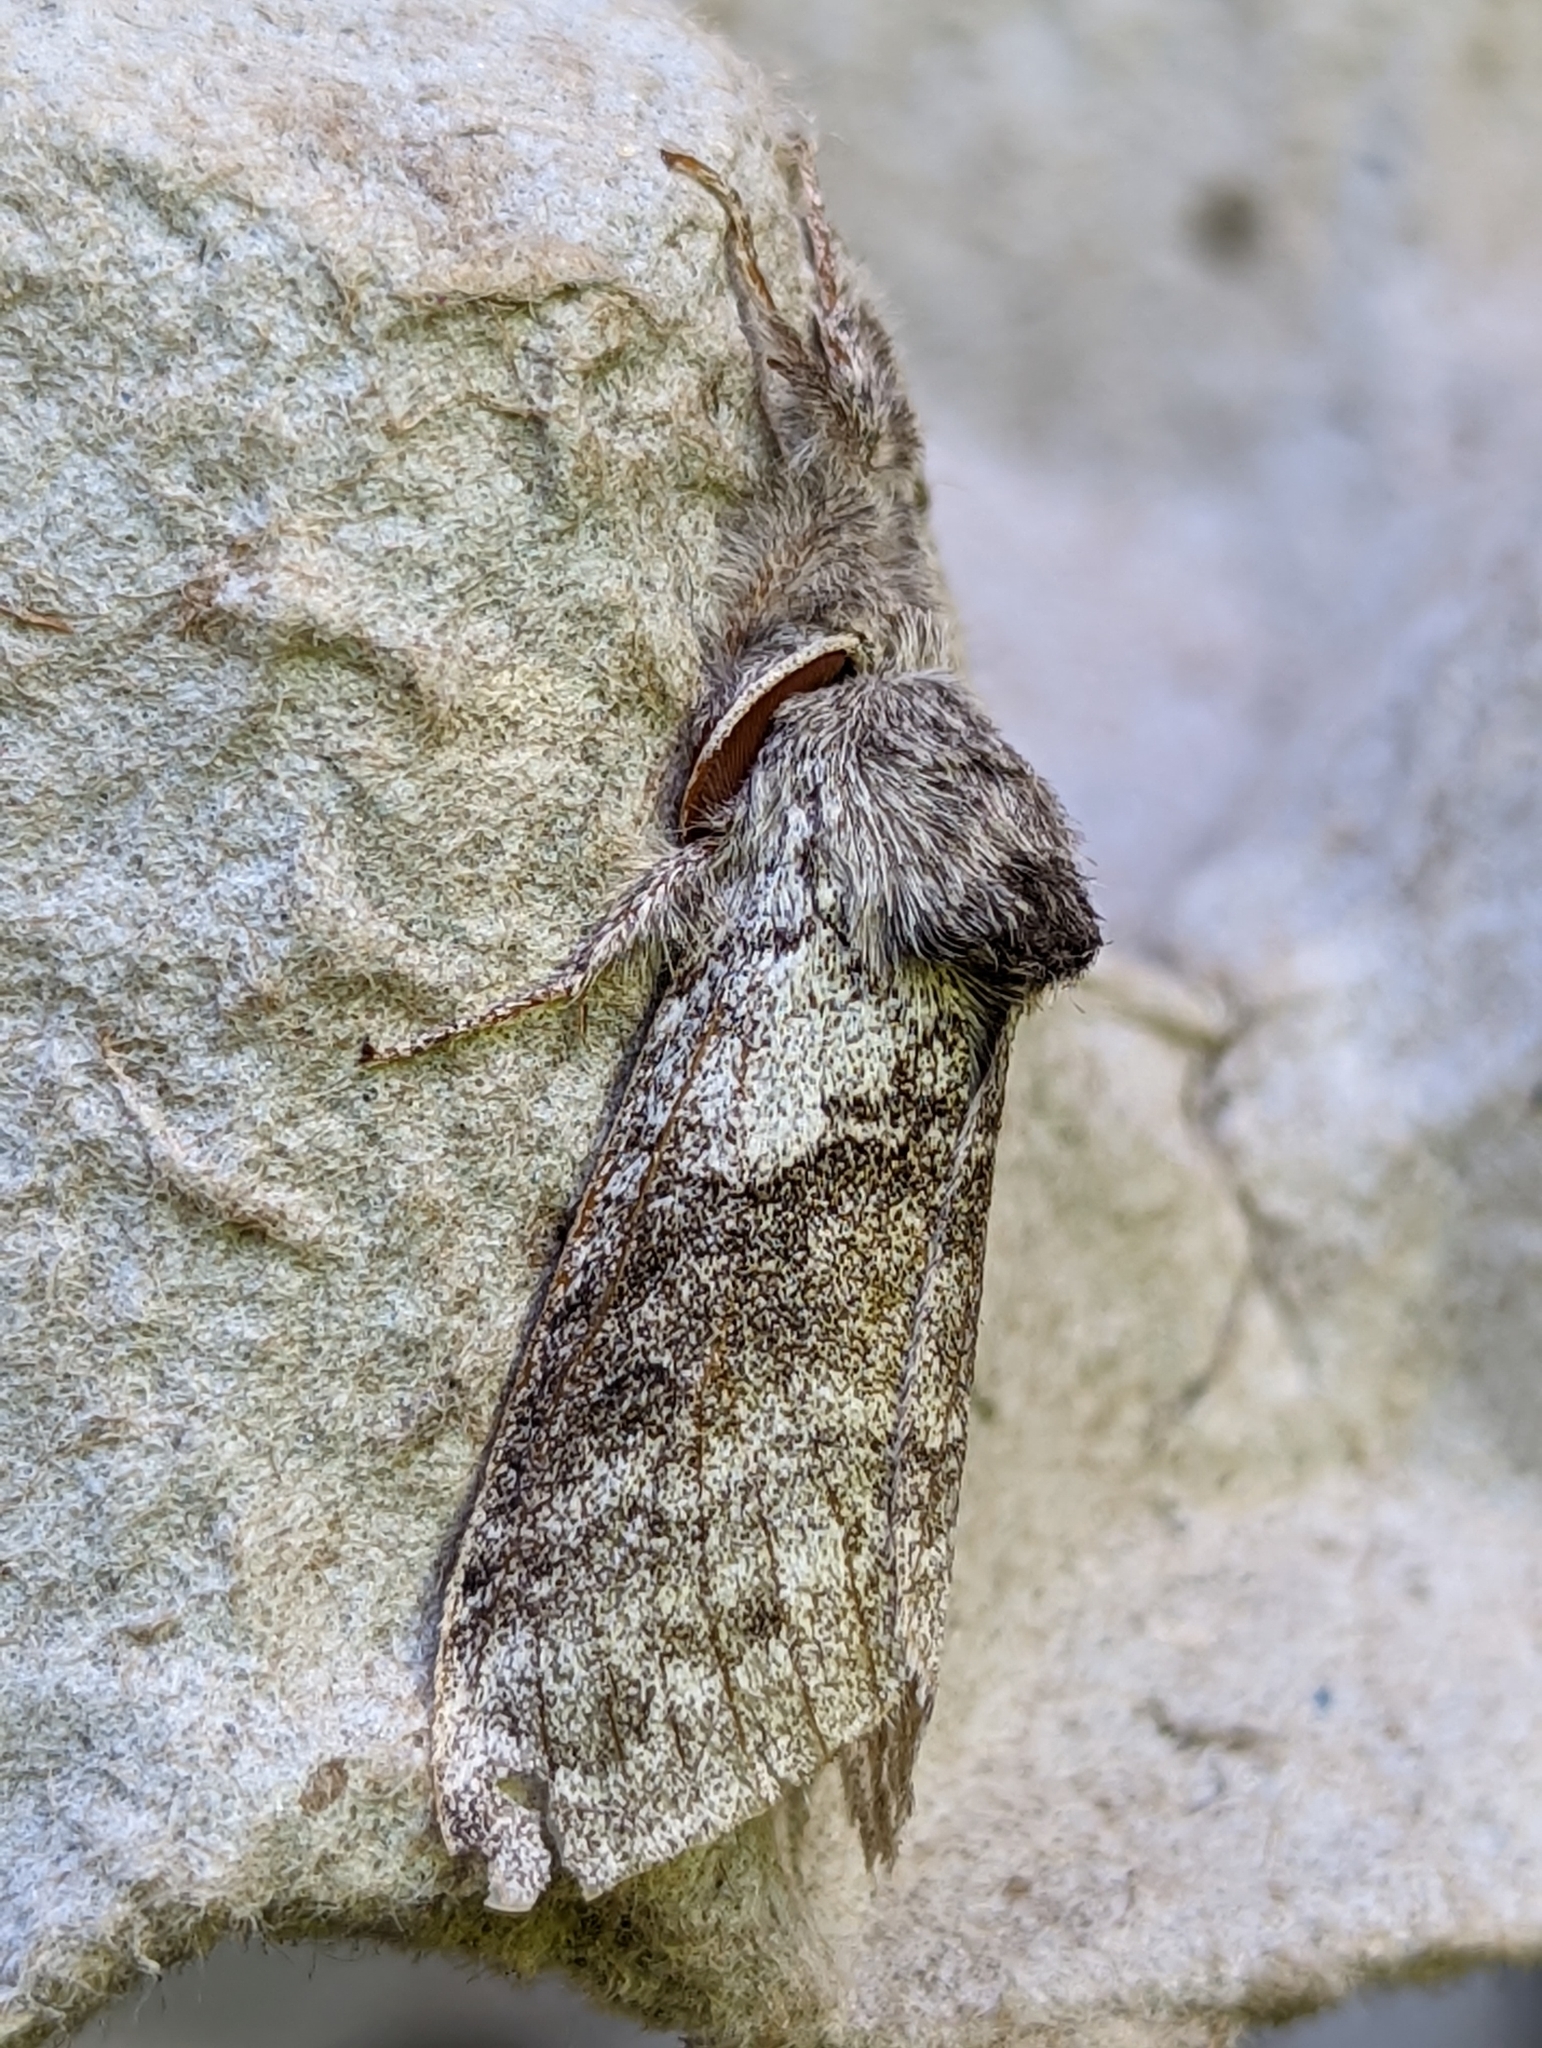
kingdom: Animalia
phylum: Arthropoda
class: Insecta
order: Lepidoptera
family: Erebidae
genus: Calliteara
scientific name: Calliteara pudibunda
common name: Pale tussock
